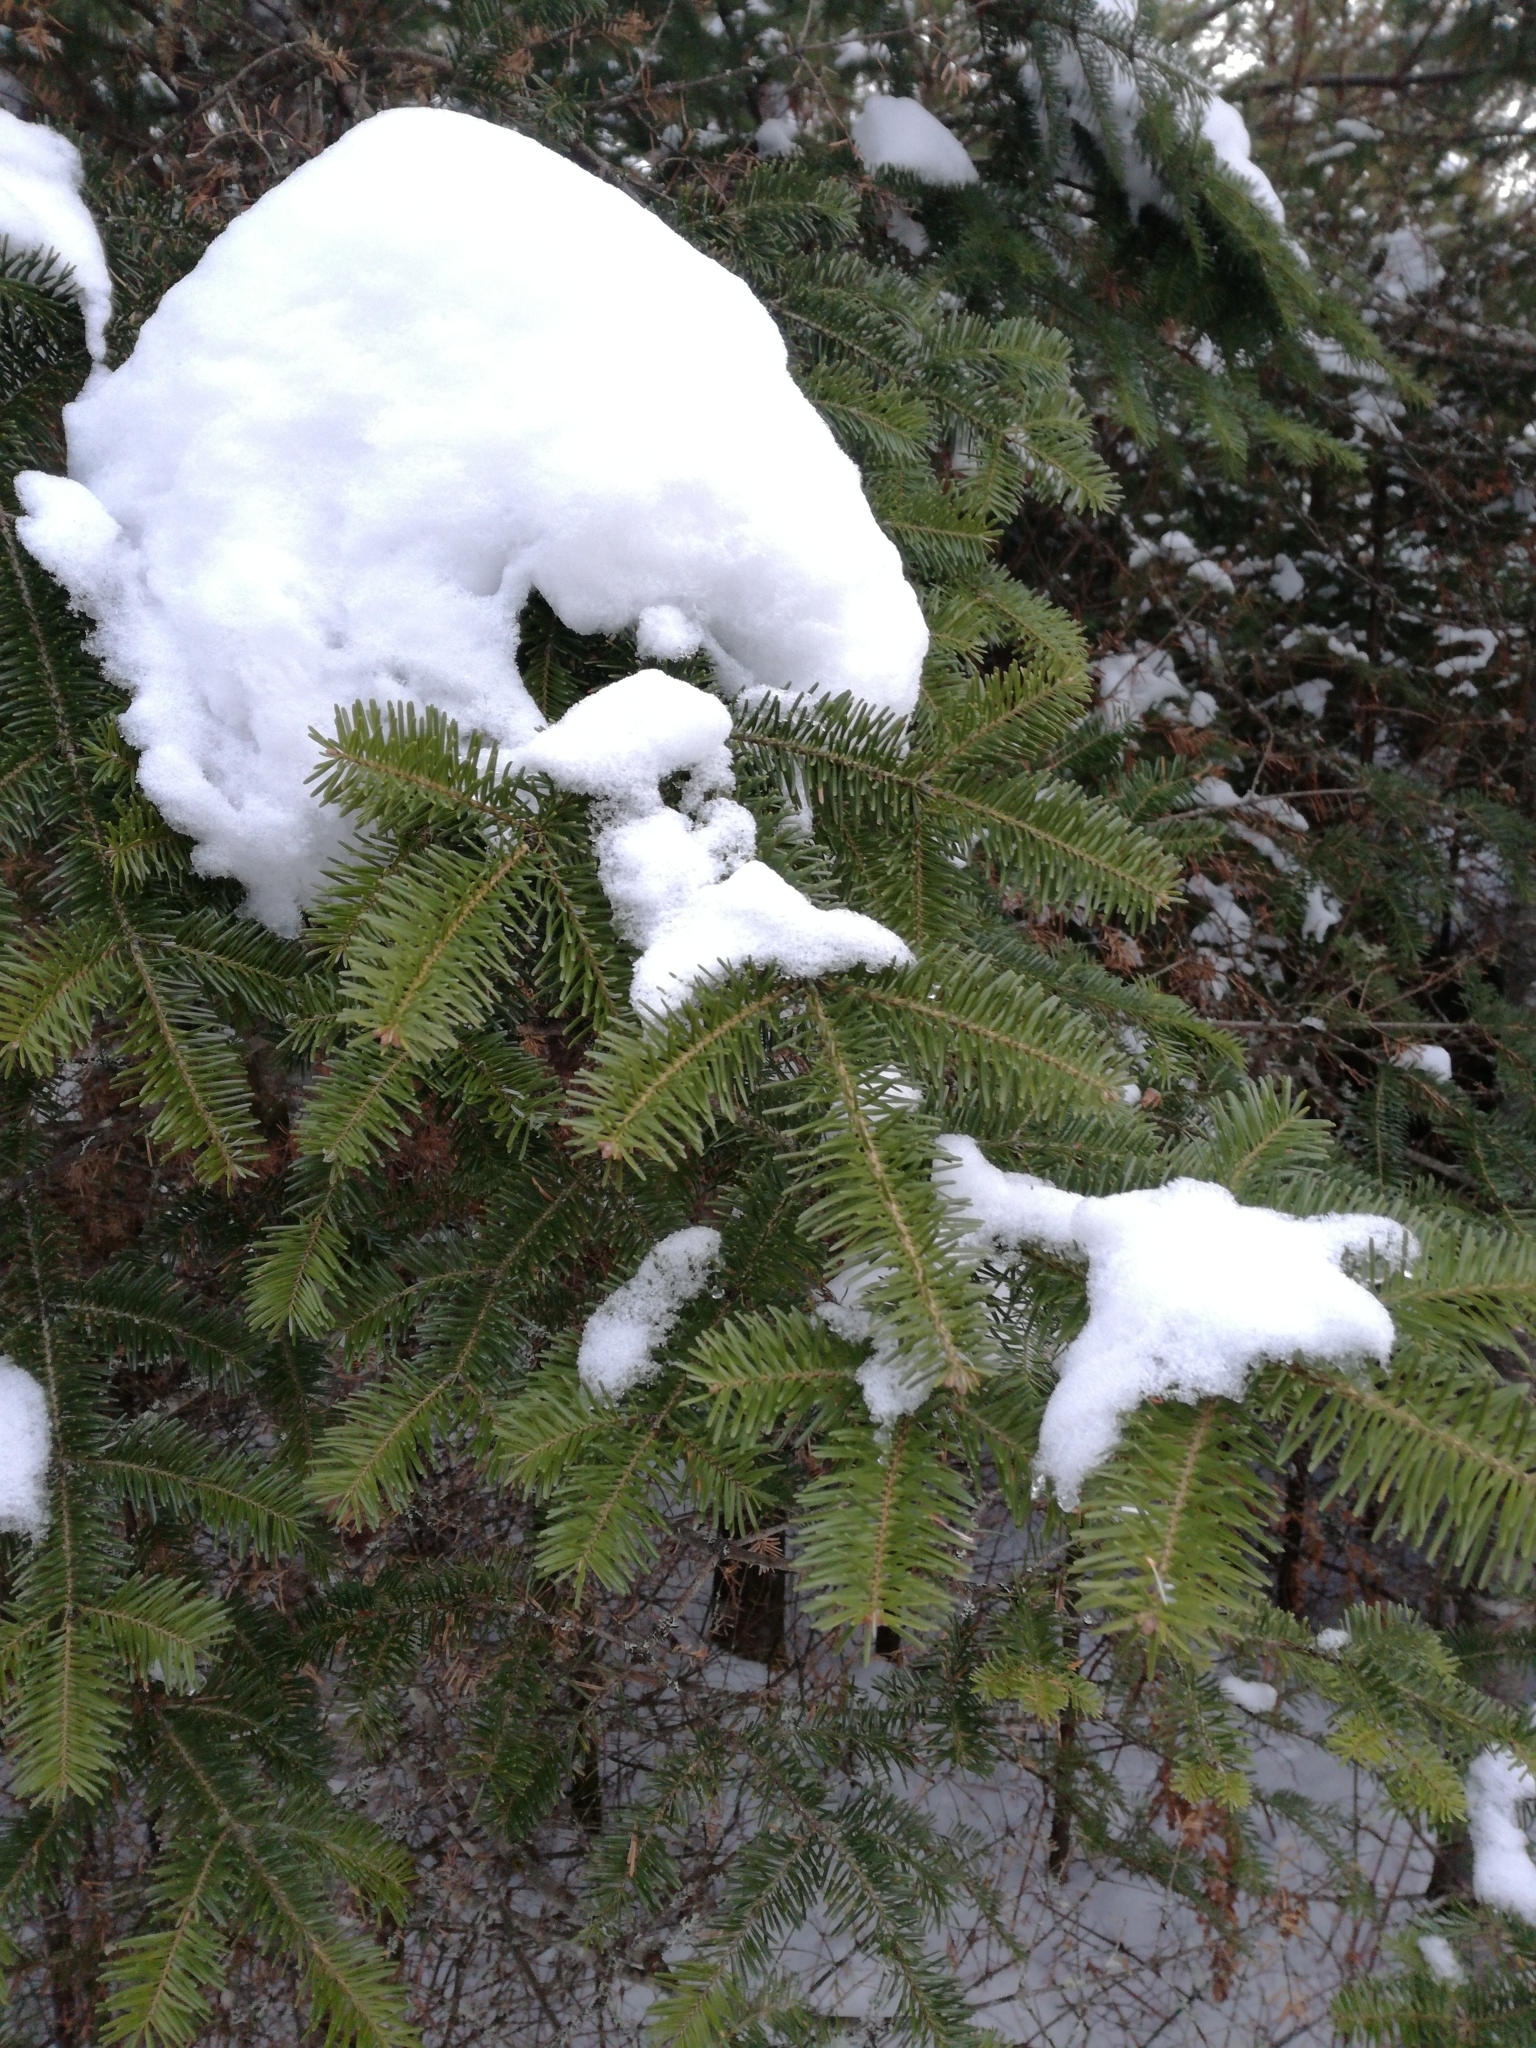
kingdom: Plantae
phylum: Tracheophyta
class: Pinopsida
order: Pinales
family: Pinaceae
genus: Abies
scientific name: Abies balsamea
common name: Balsam fir
